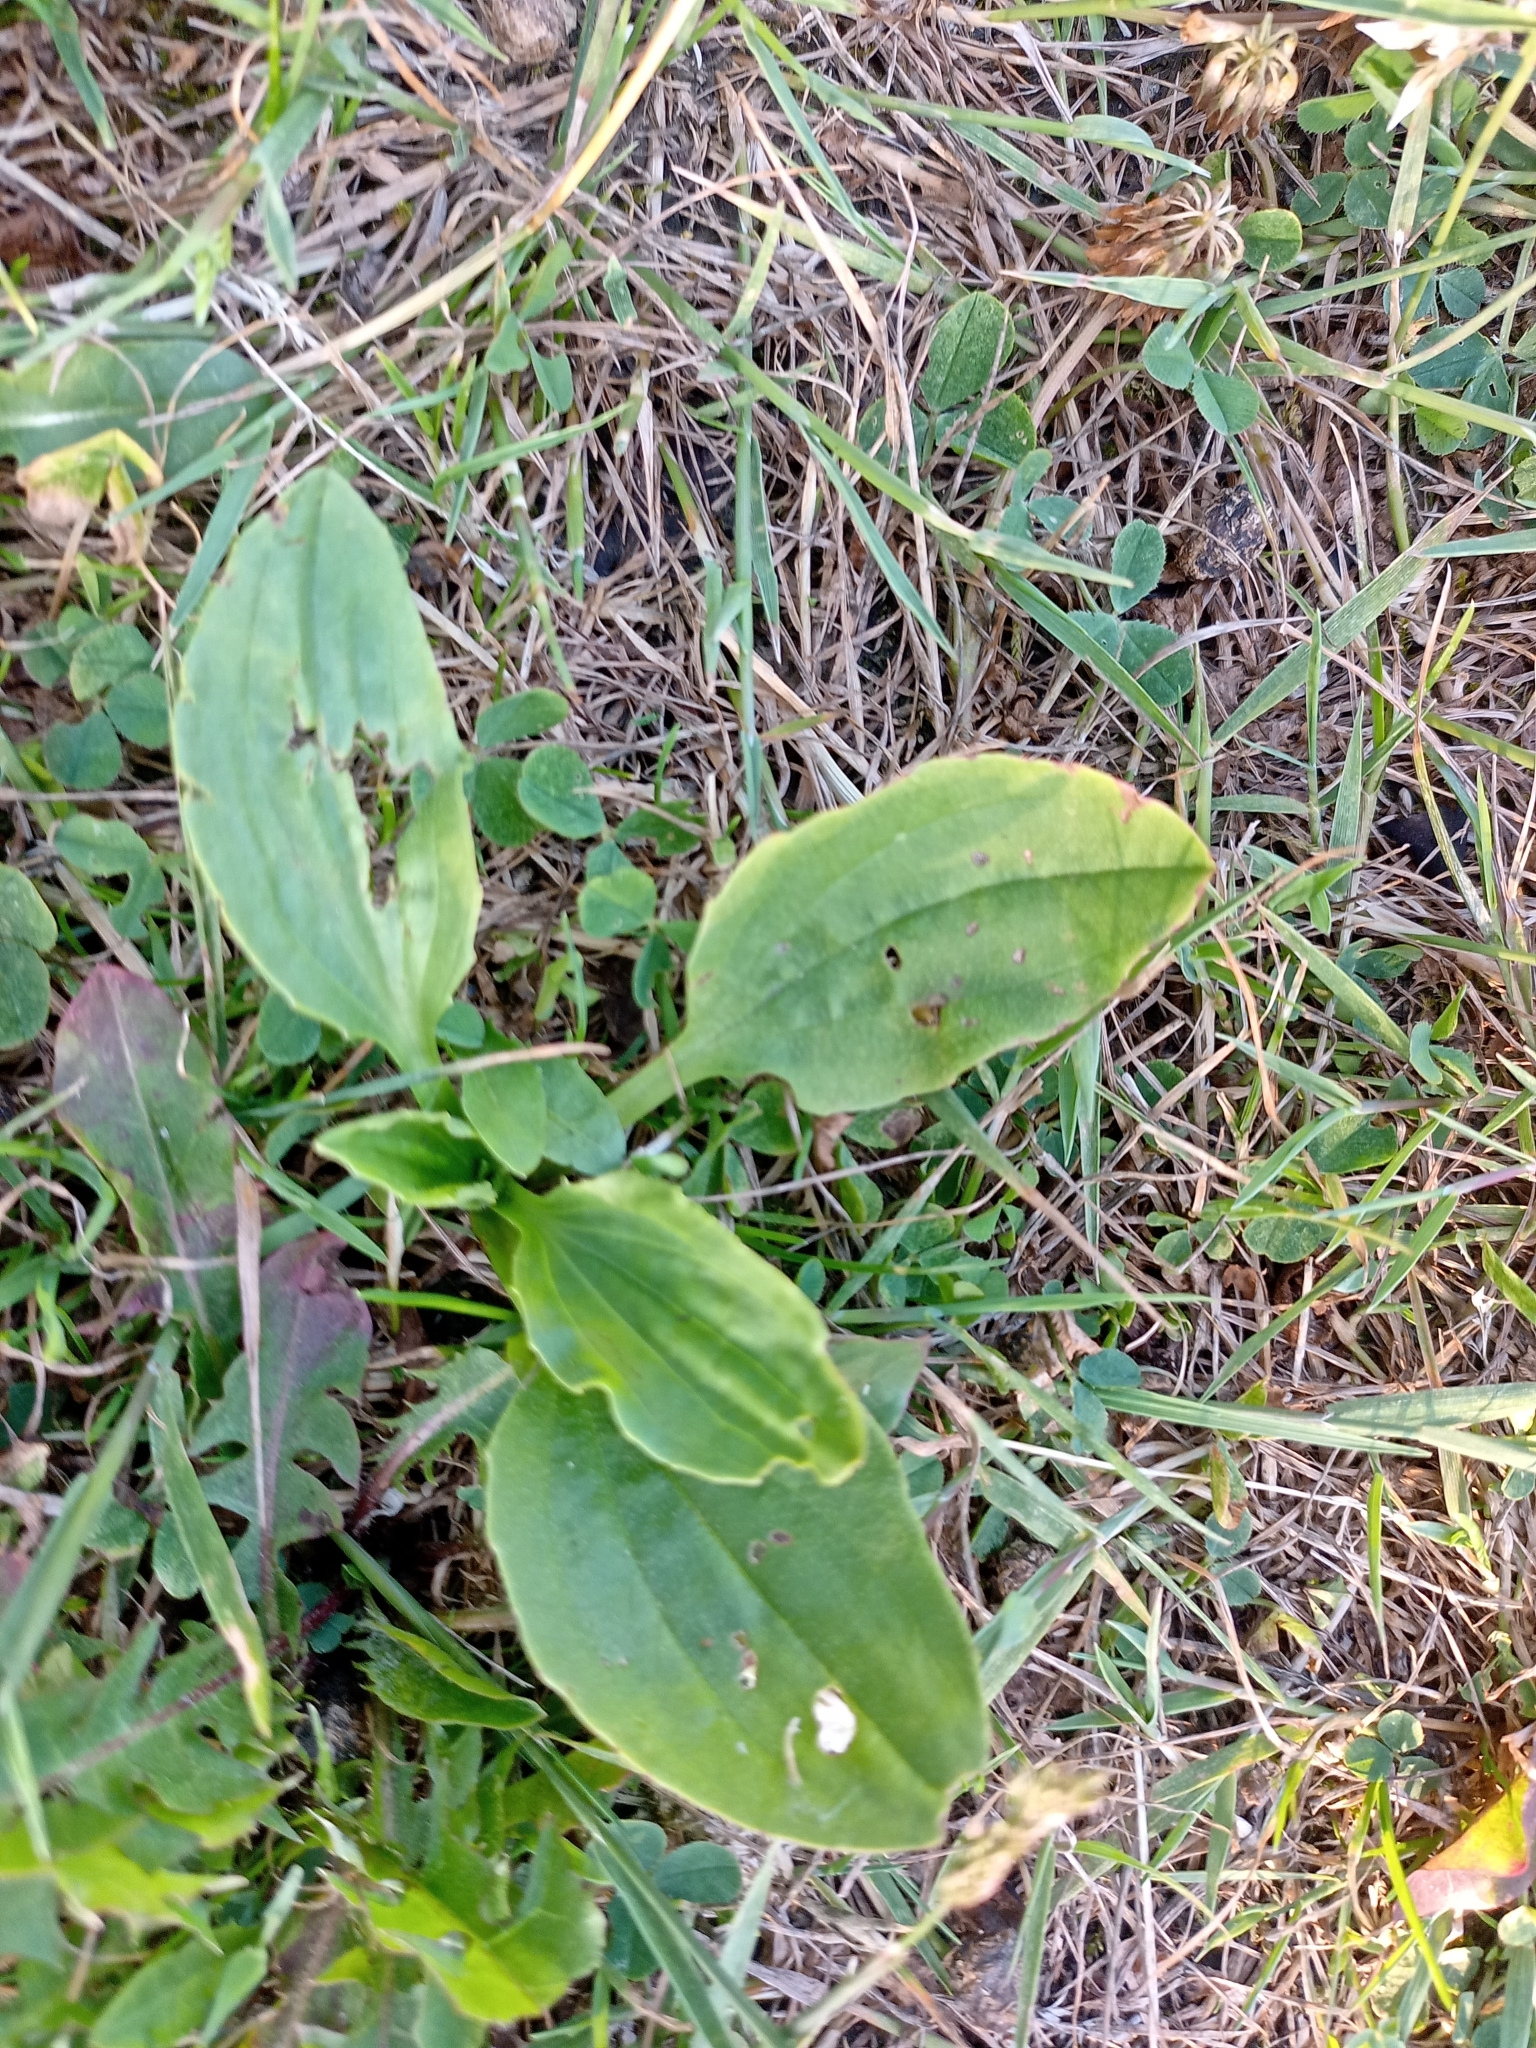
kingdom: Plantae
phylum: Tracheophyta
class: Magnoliopsida
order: Lamiales
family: Plantaginaceae
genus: Plantago
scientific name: Plantago major
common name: Common plantain
